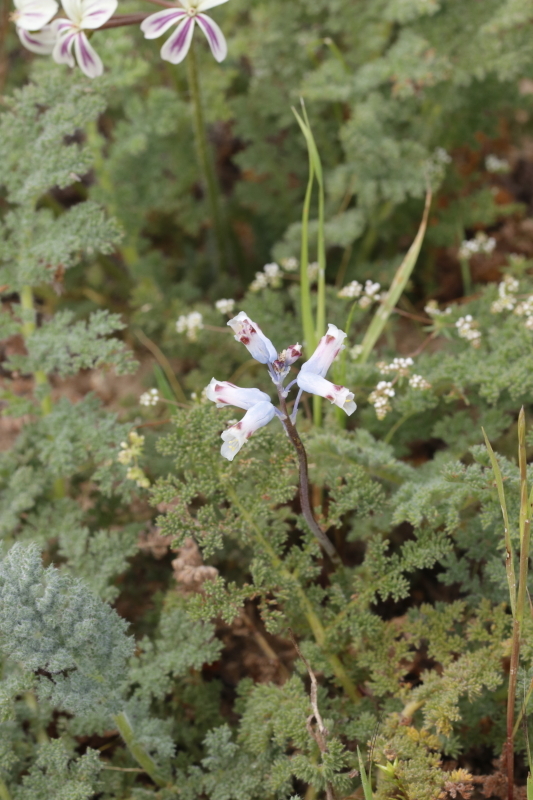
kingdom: Plantae
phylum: Tracheophyta
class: Liliopsida
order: Asparagales
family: Asparagaceae
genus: Lachenalia
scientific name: Lachenalia unifolia
